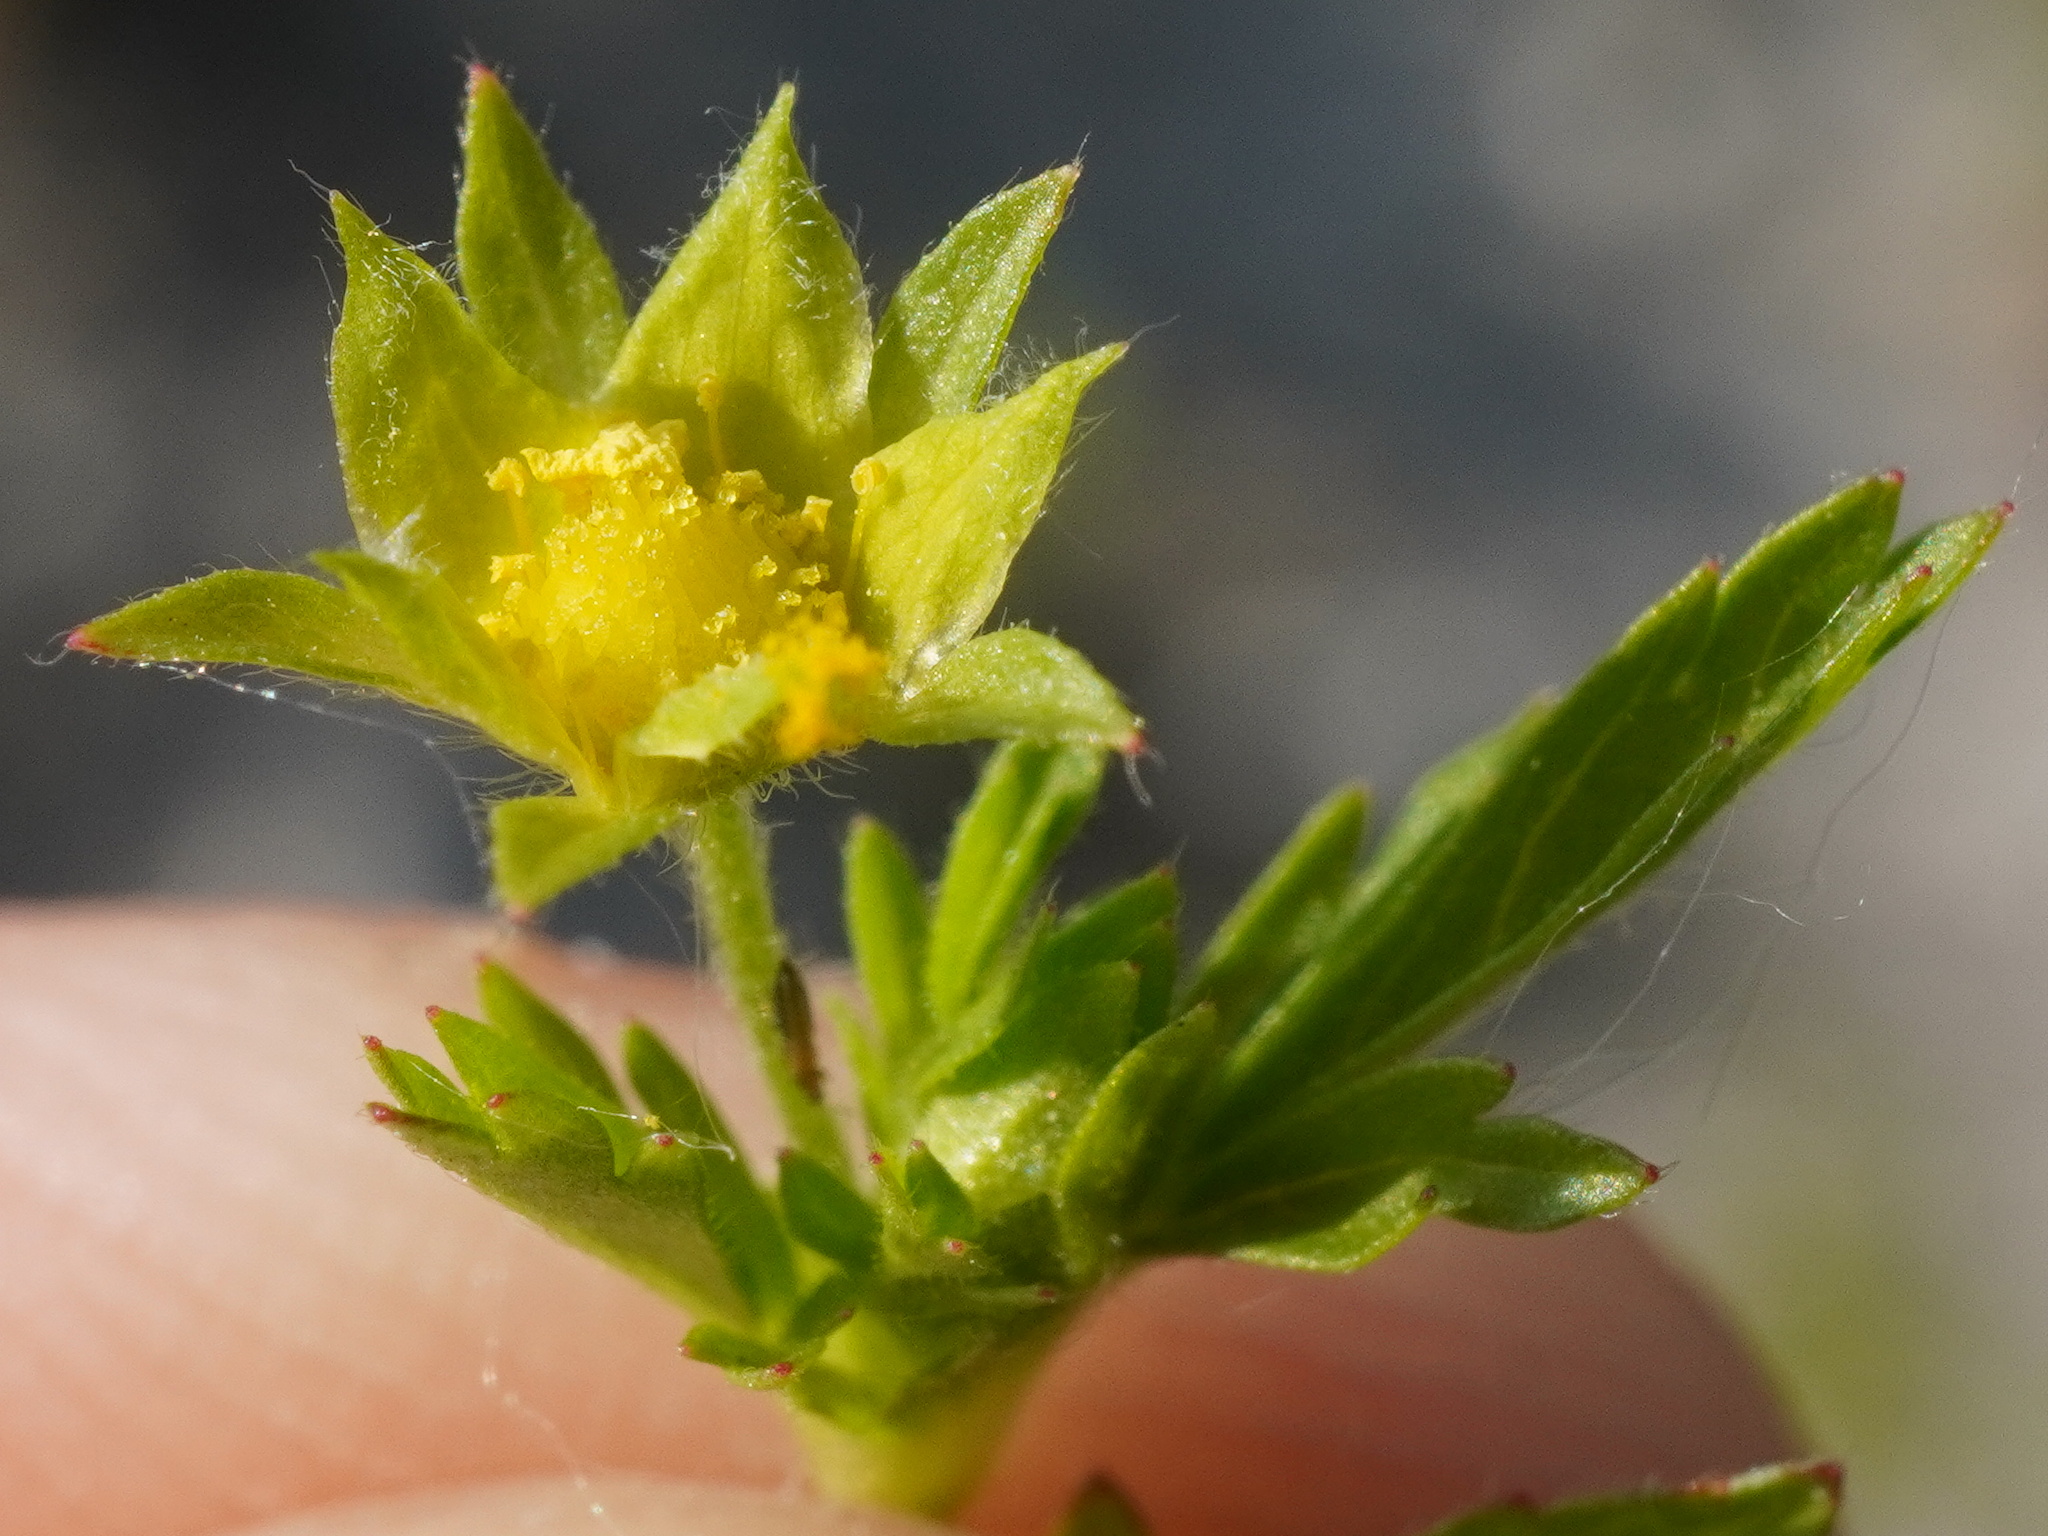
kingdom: Plantae
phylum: Tracheophyta
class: Magnoliopsida
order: Rosales
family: Rosaceae
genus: Potentilla
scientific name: Potentilla supina
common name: Prostrate cinquefoil
